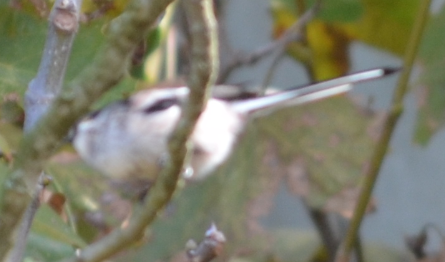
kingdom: Animalia
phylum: Chordata
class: Aves
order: Passeriformes
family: Aegithalidae
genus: Aegithalos
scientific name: Aegithalos caudatus
